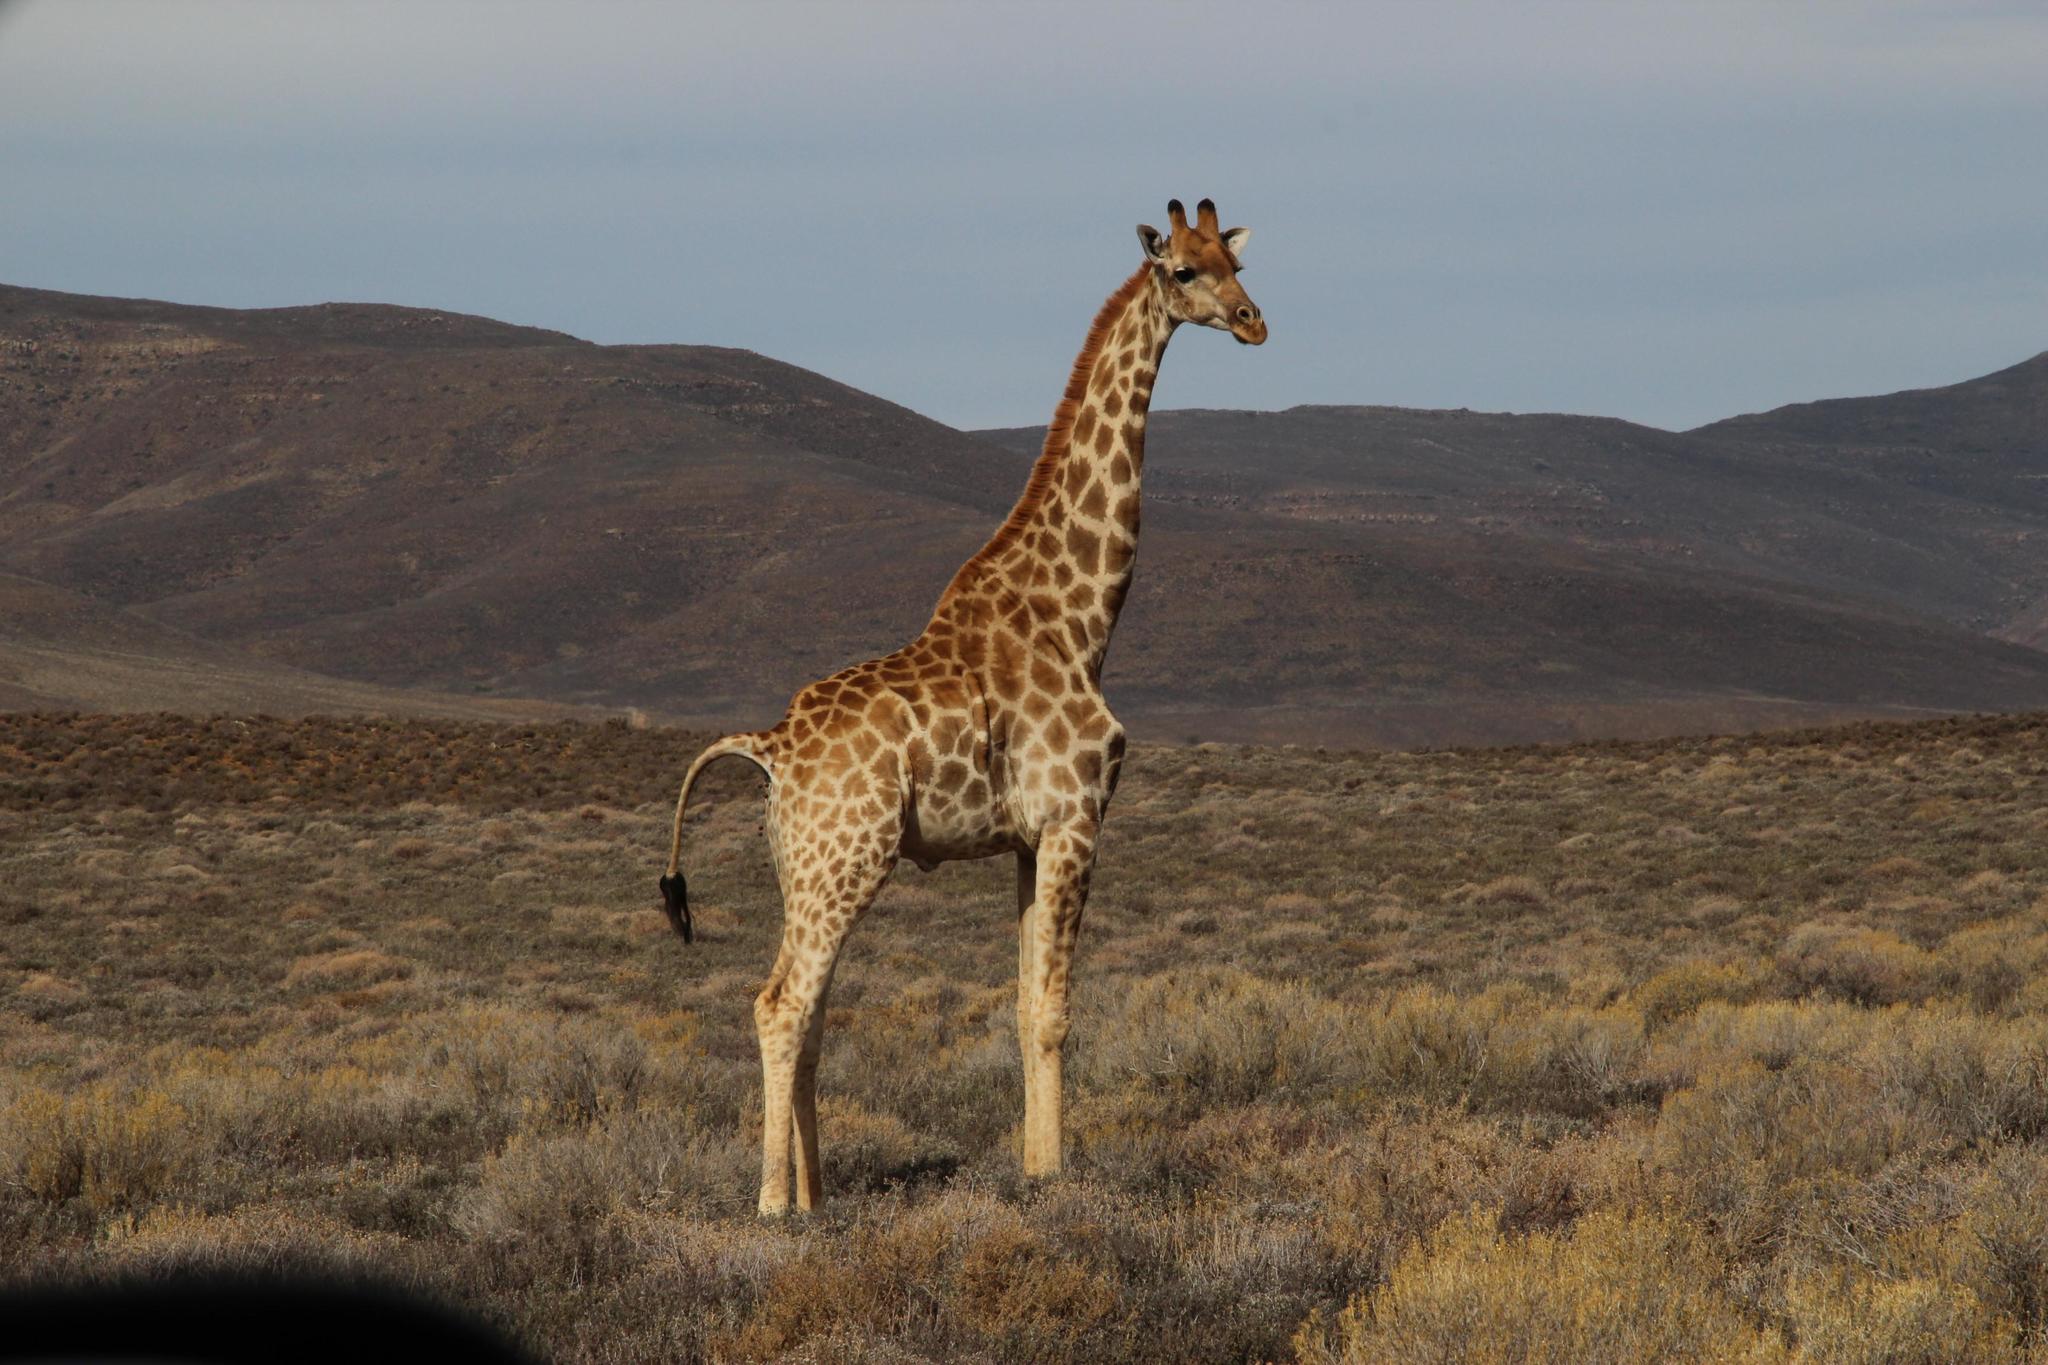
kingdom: Animalia
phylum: Chordata
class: Mammalia
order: Artiodactyla
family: Giraffidae
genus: Giraffa
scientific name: Giraffa giraffa
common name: Southern giraffe
